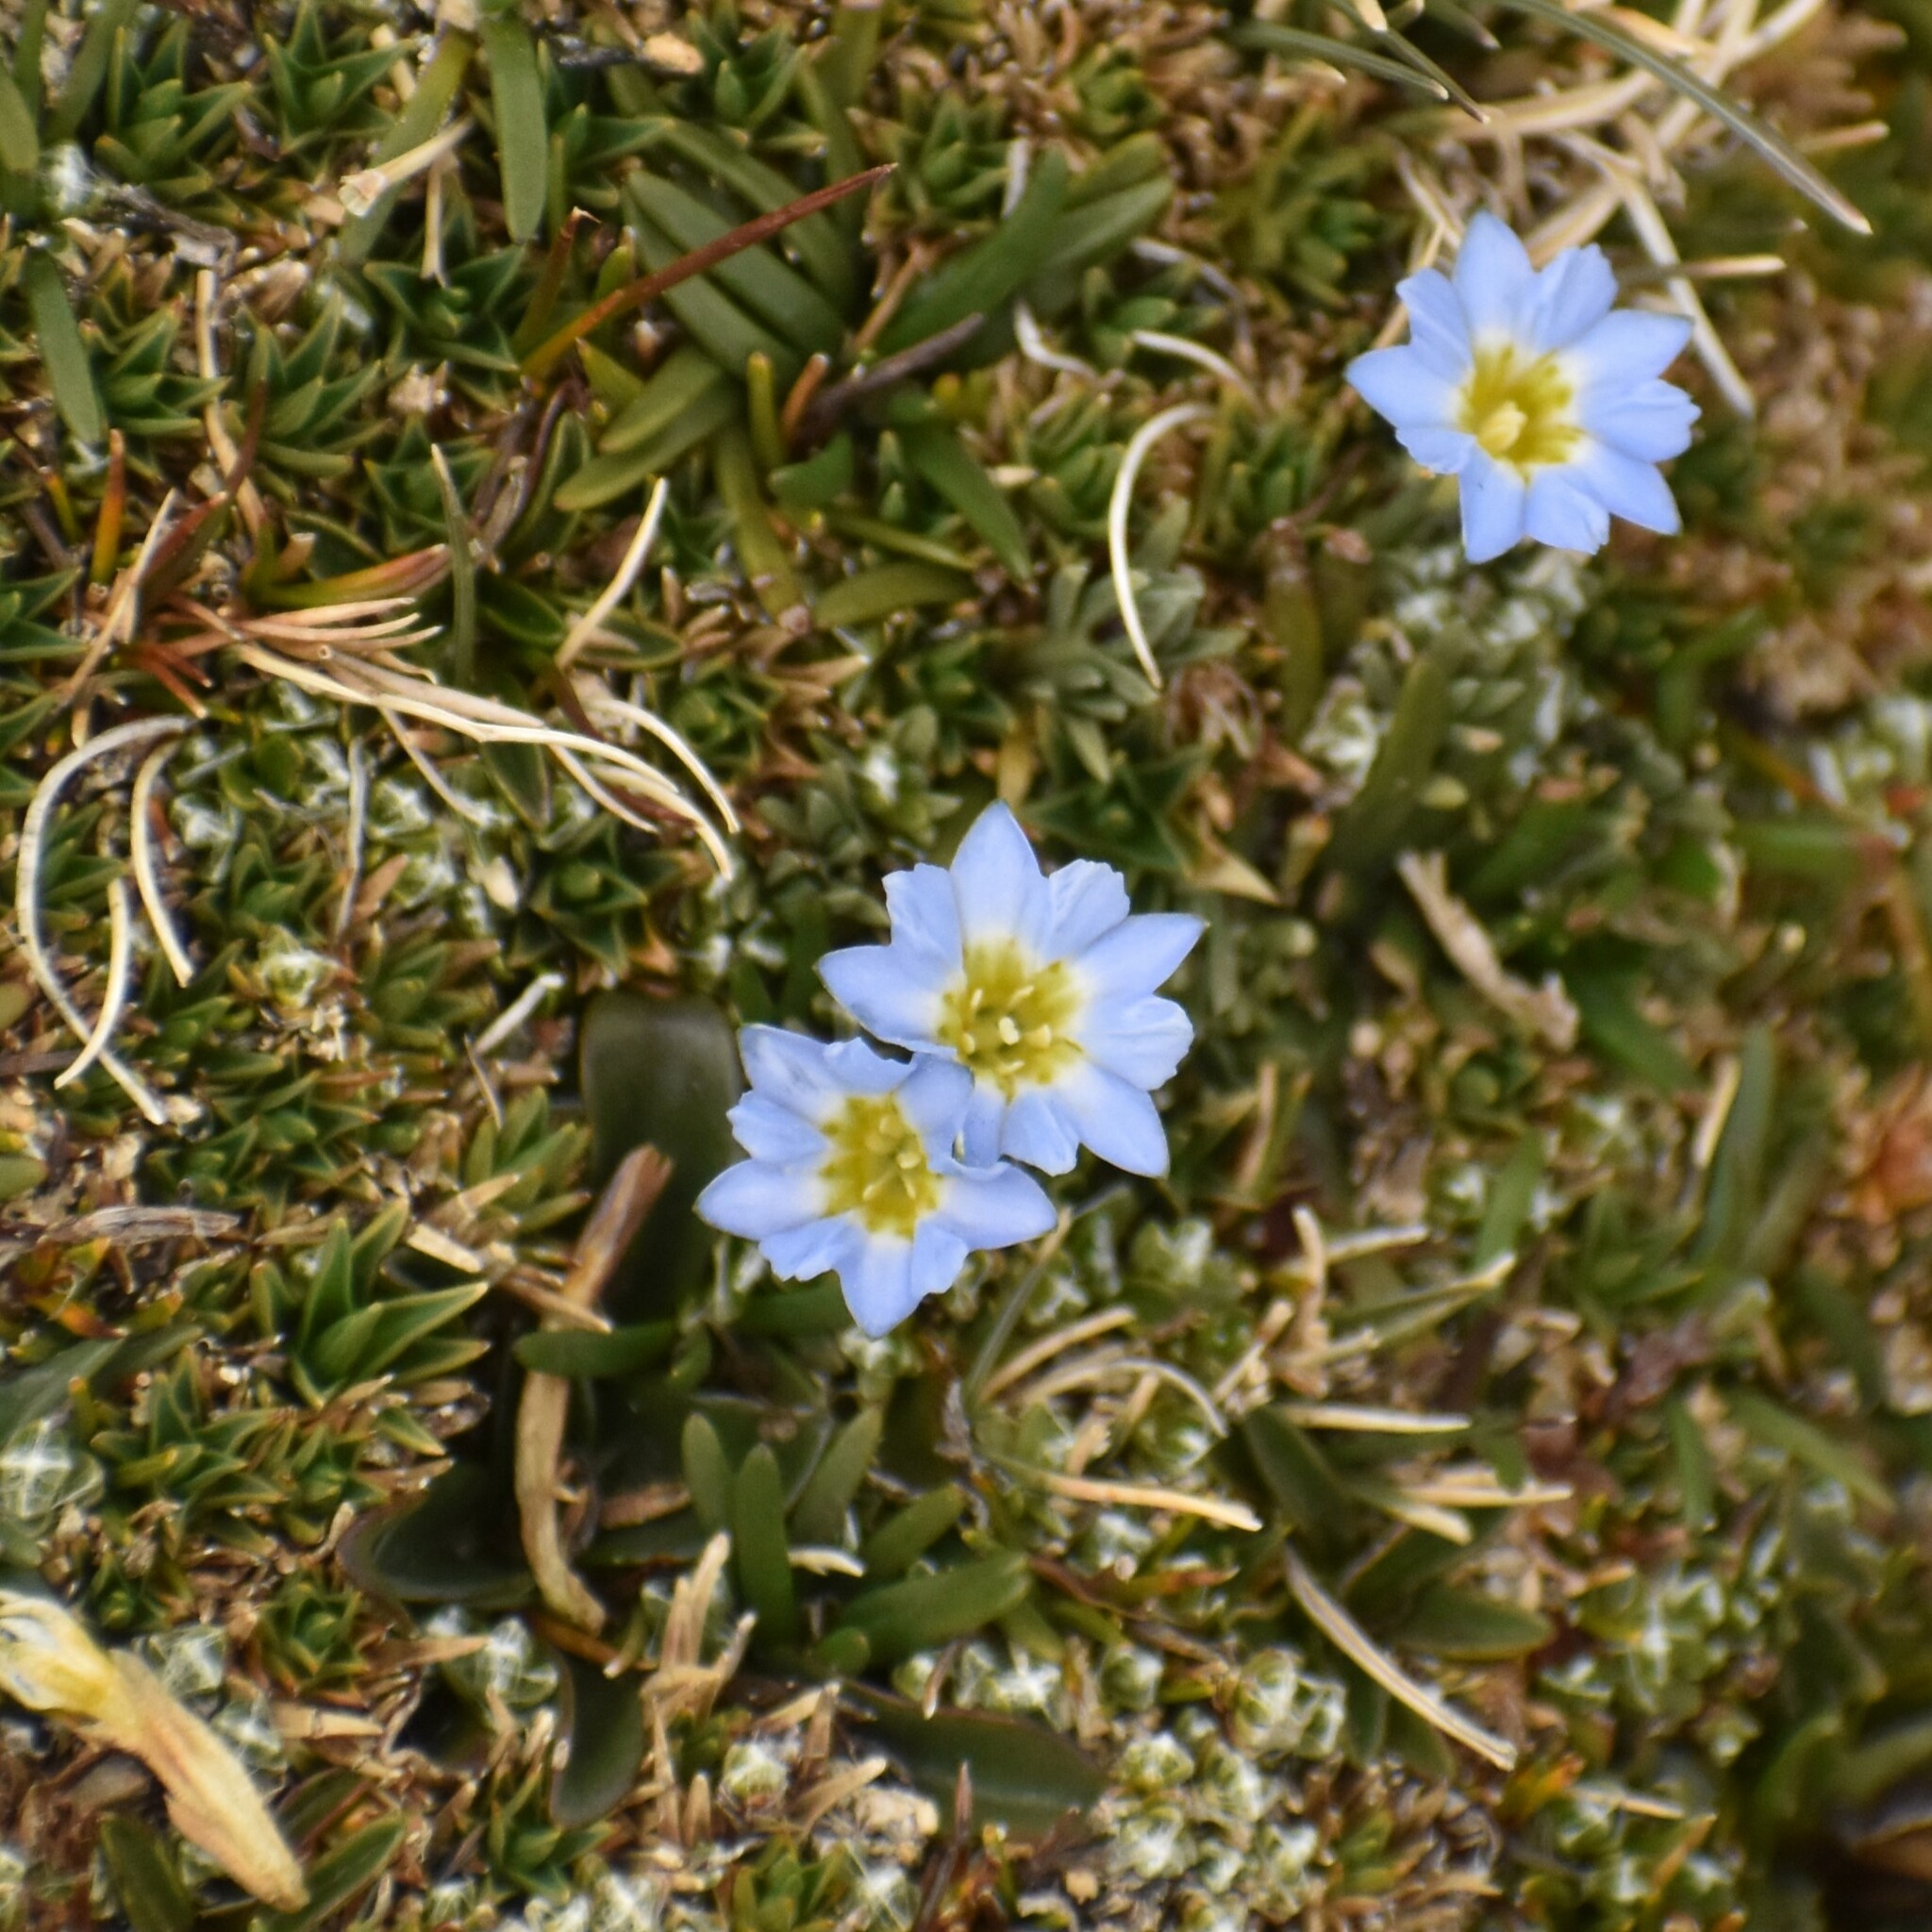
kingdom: Plantae
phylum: Tracheophyta
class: Magnoliopsida
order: Gentianales
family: Gentianaceae
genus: Gentiana
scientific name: Gentiana sedifolia
